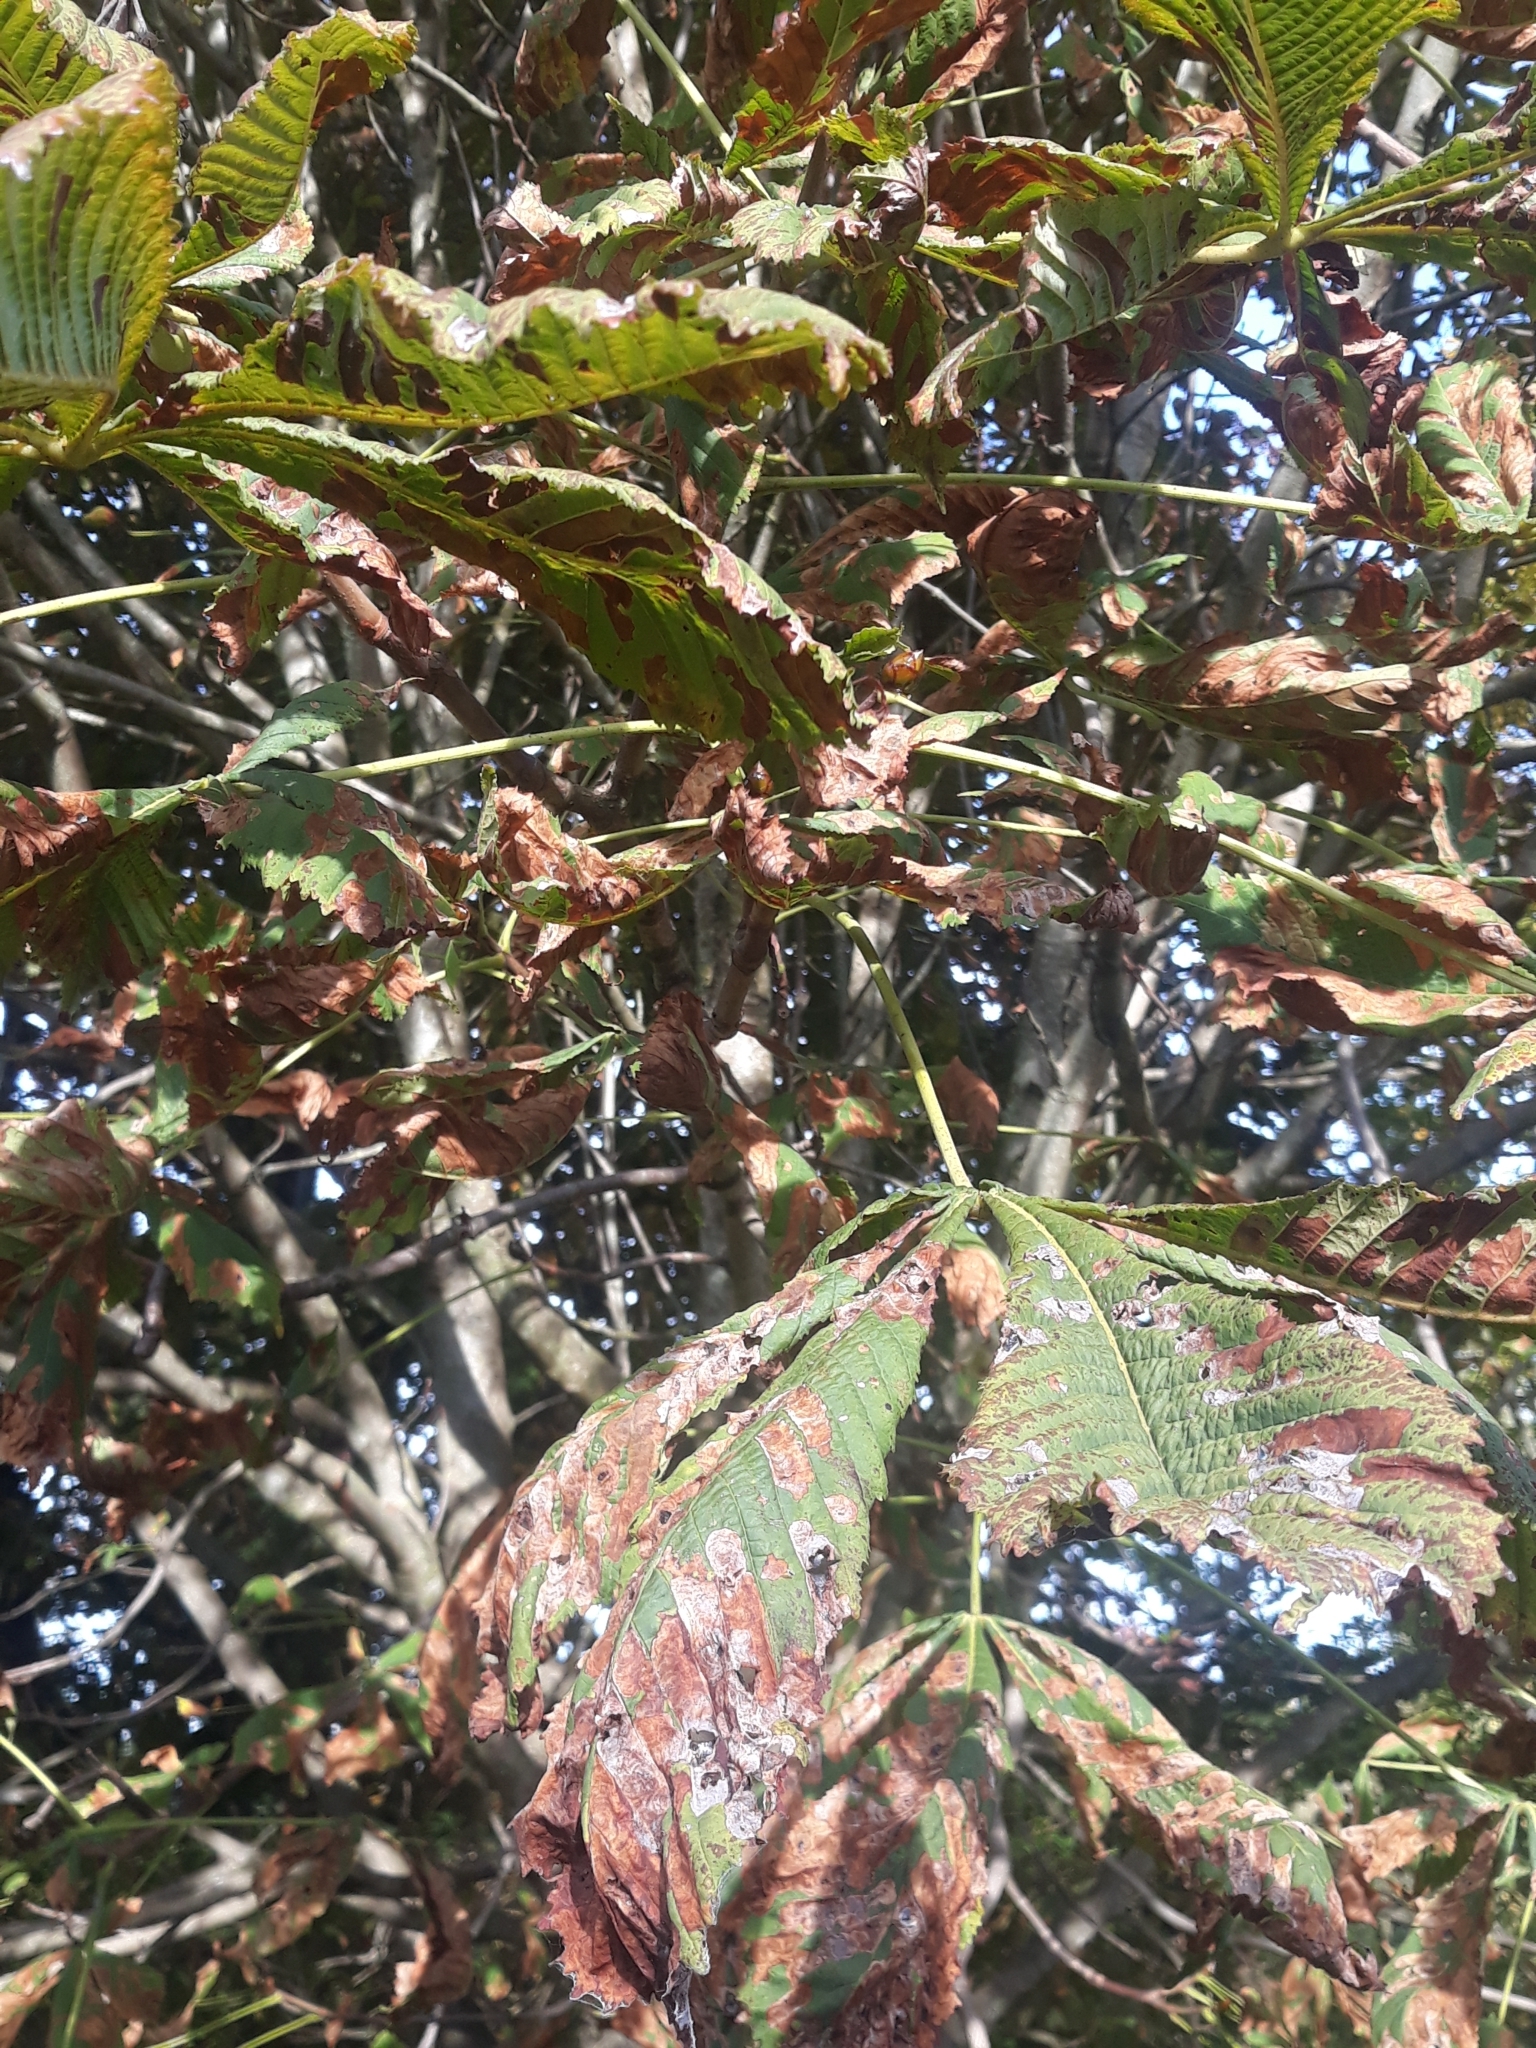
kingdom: Plantae
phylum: Tracheophyta
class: Magnoliopsida
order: Sapindales
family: Sapindaceae
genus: Aesculus
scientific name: Aesculus hippocastanum
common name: Horse-chestnut
